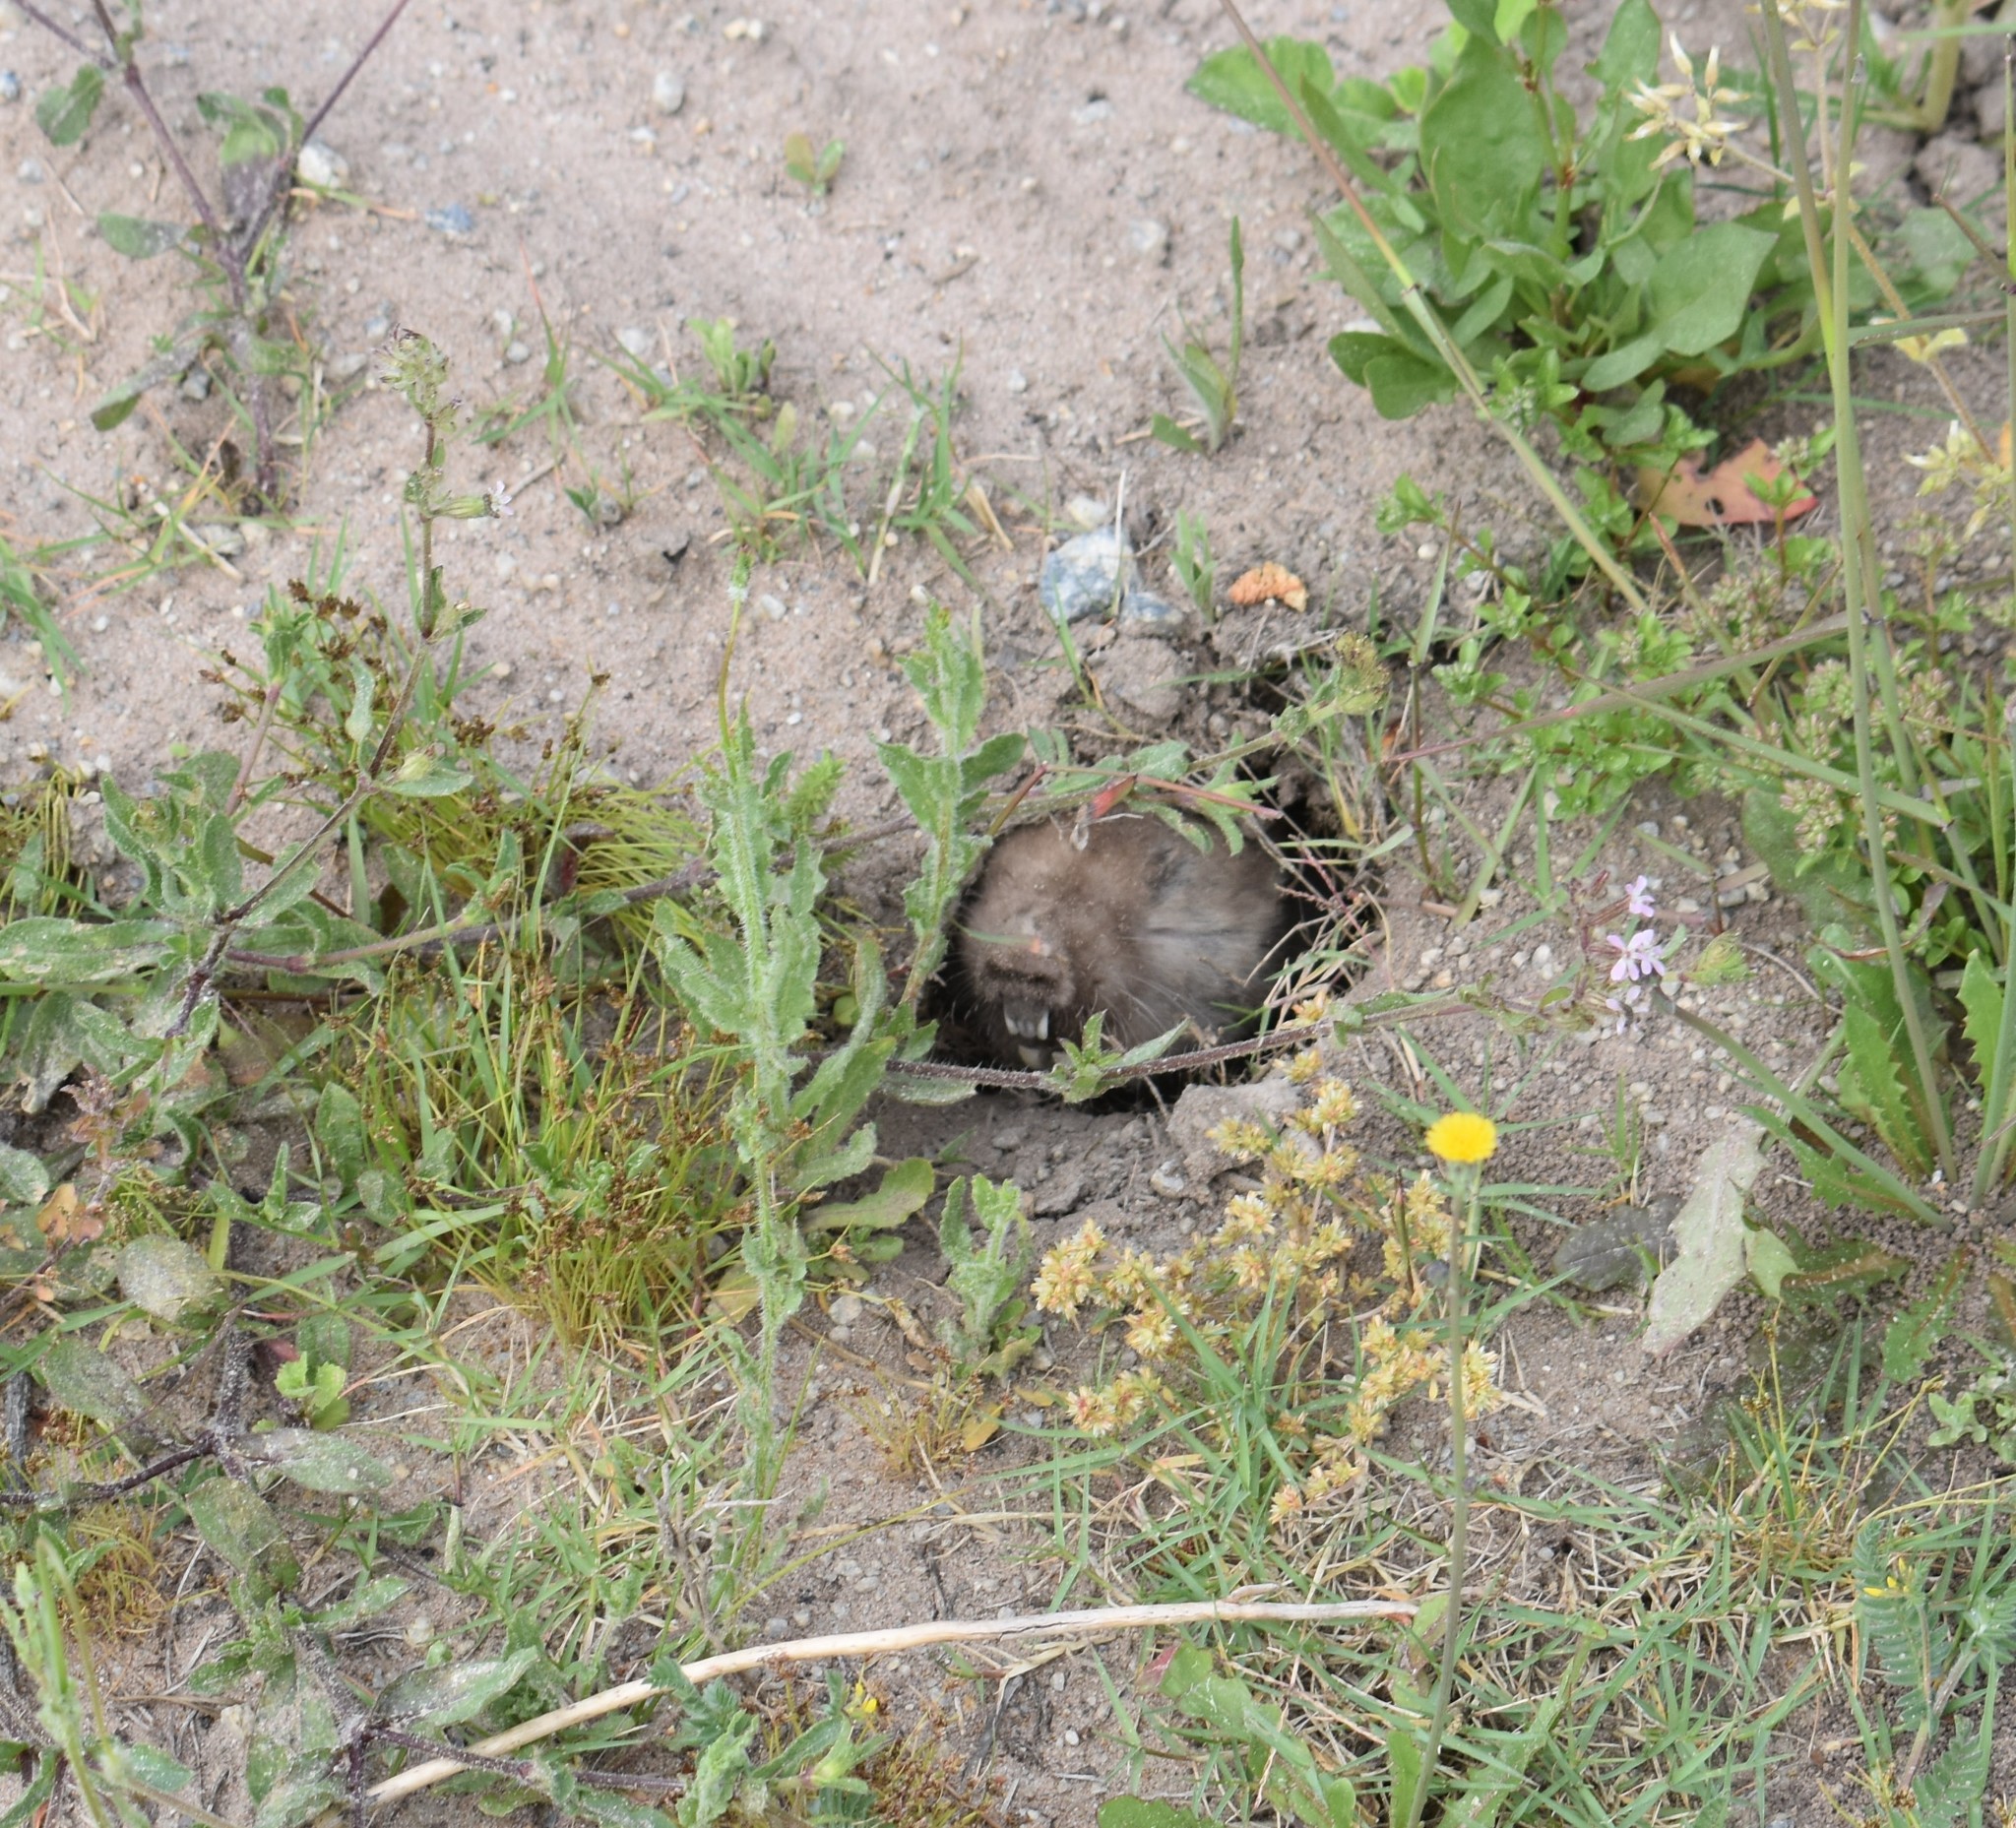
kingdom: Animalia
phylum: Chordata
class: Mammalia
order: Rodentia
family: Bathyergidae
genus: Bathyergus
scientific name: Bathyergus suillus
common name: Cape dune mole rat
